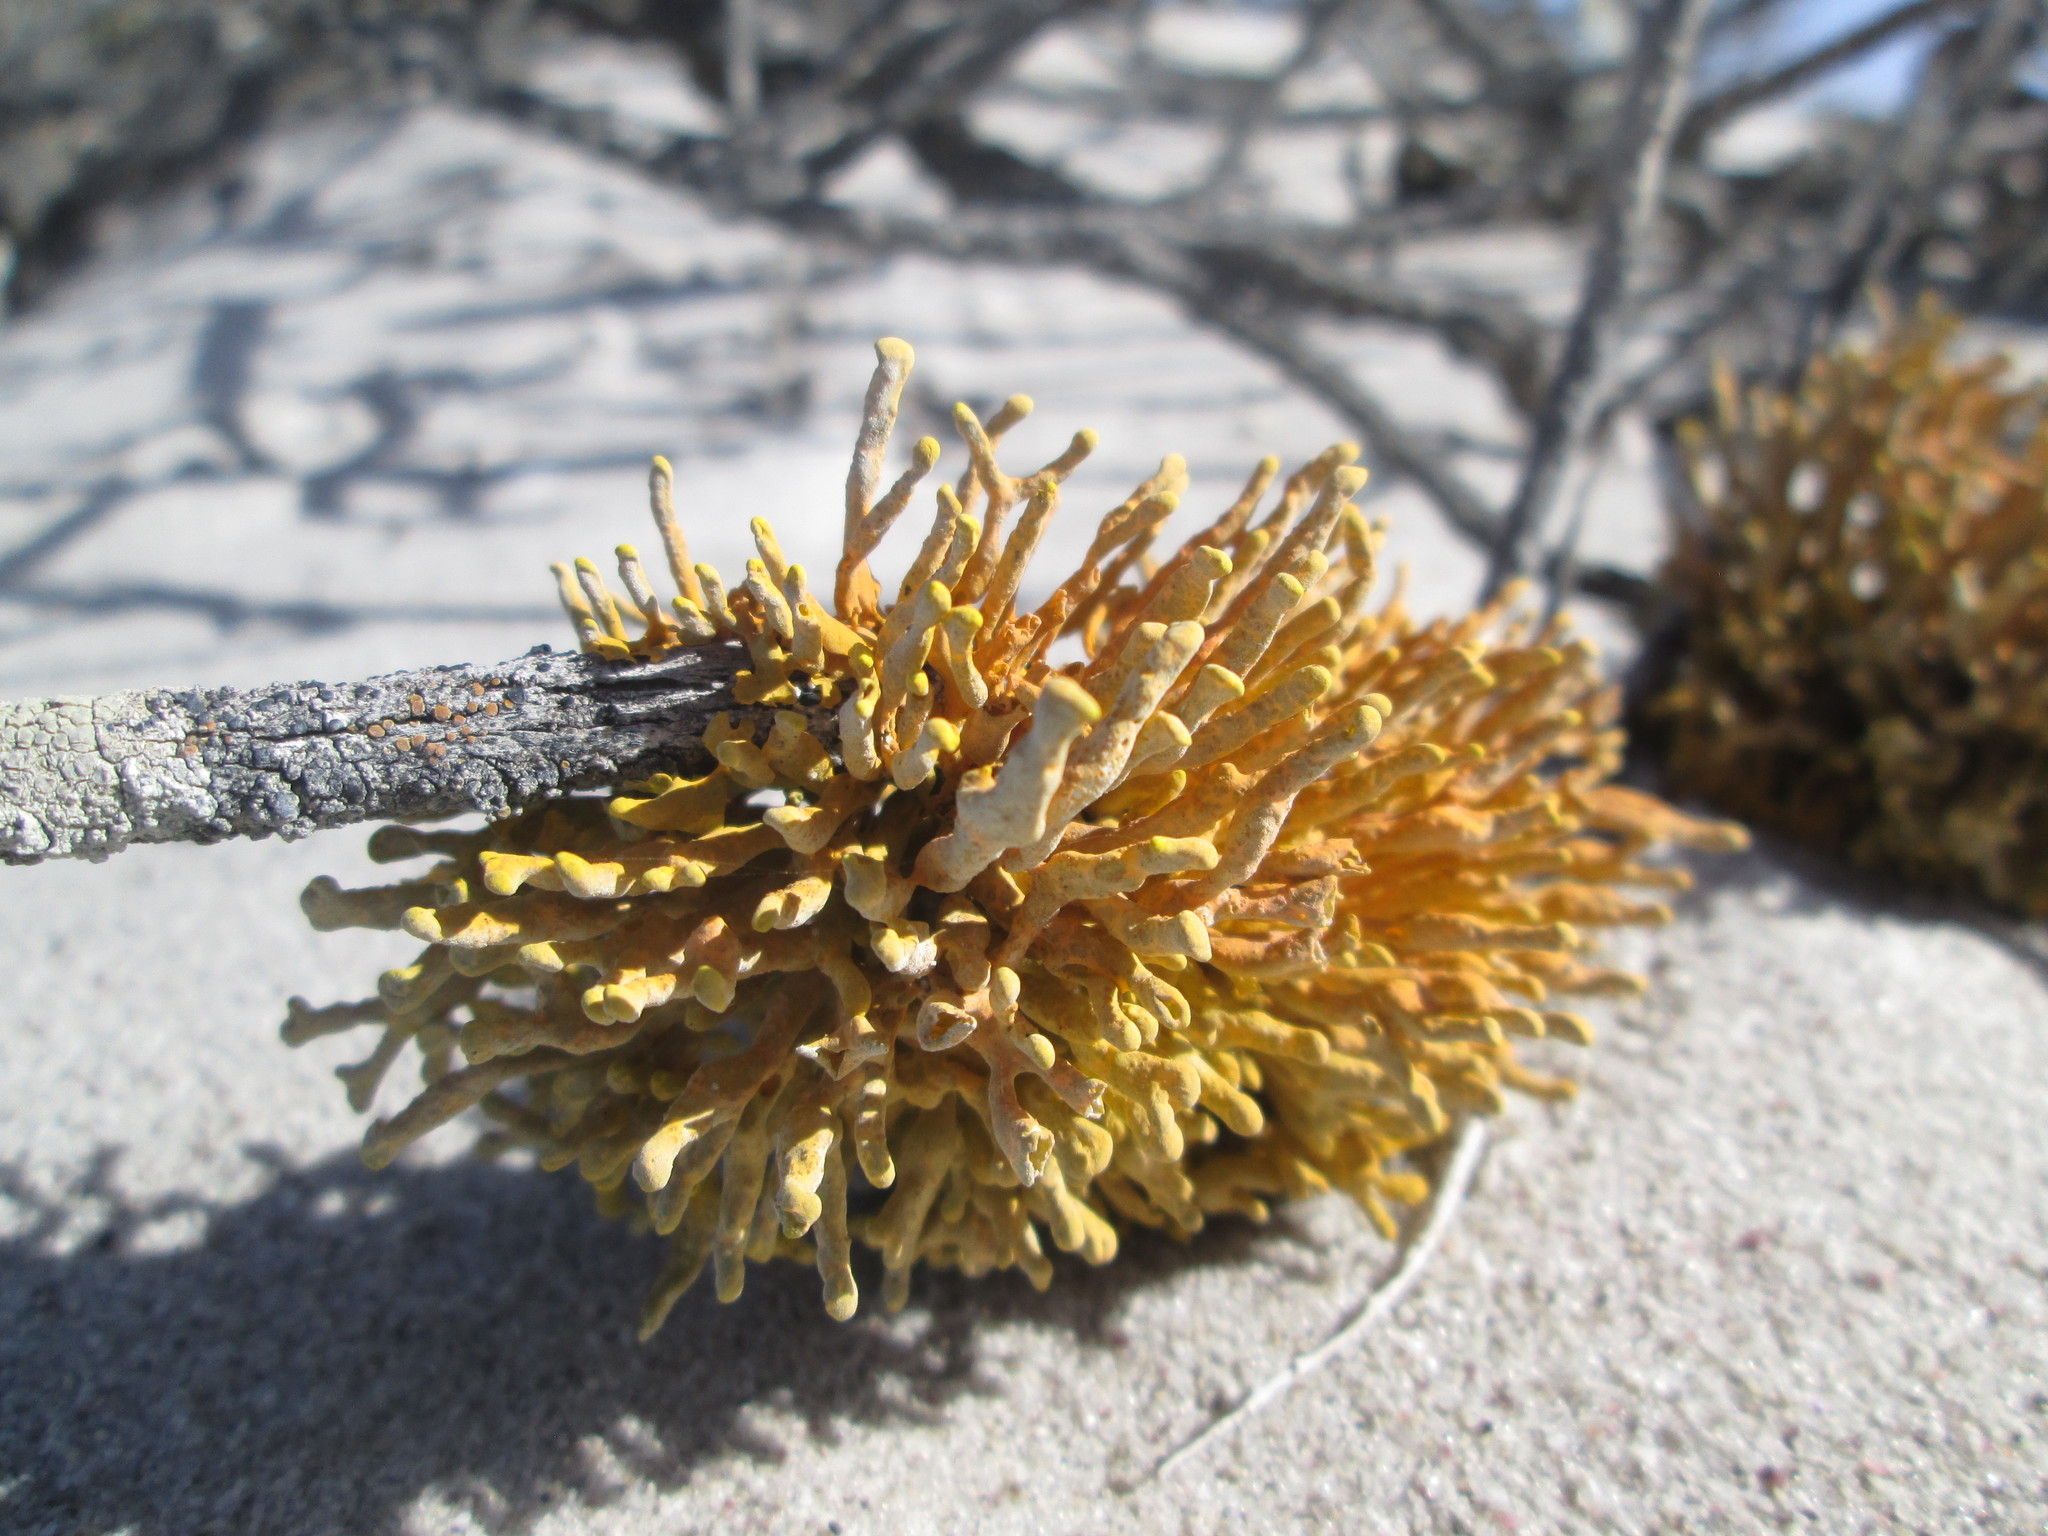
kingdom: Fungi
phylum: Ascomycota
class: Lecanoromycetes
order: Teloschistales
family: Teloschistaceae
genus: Dufourea
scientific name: Dufourea flammea
